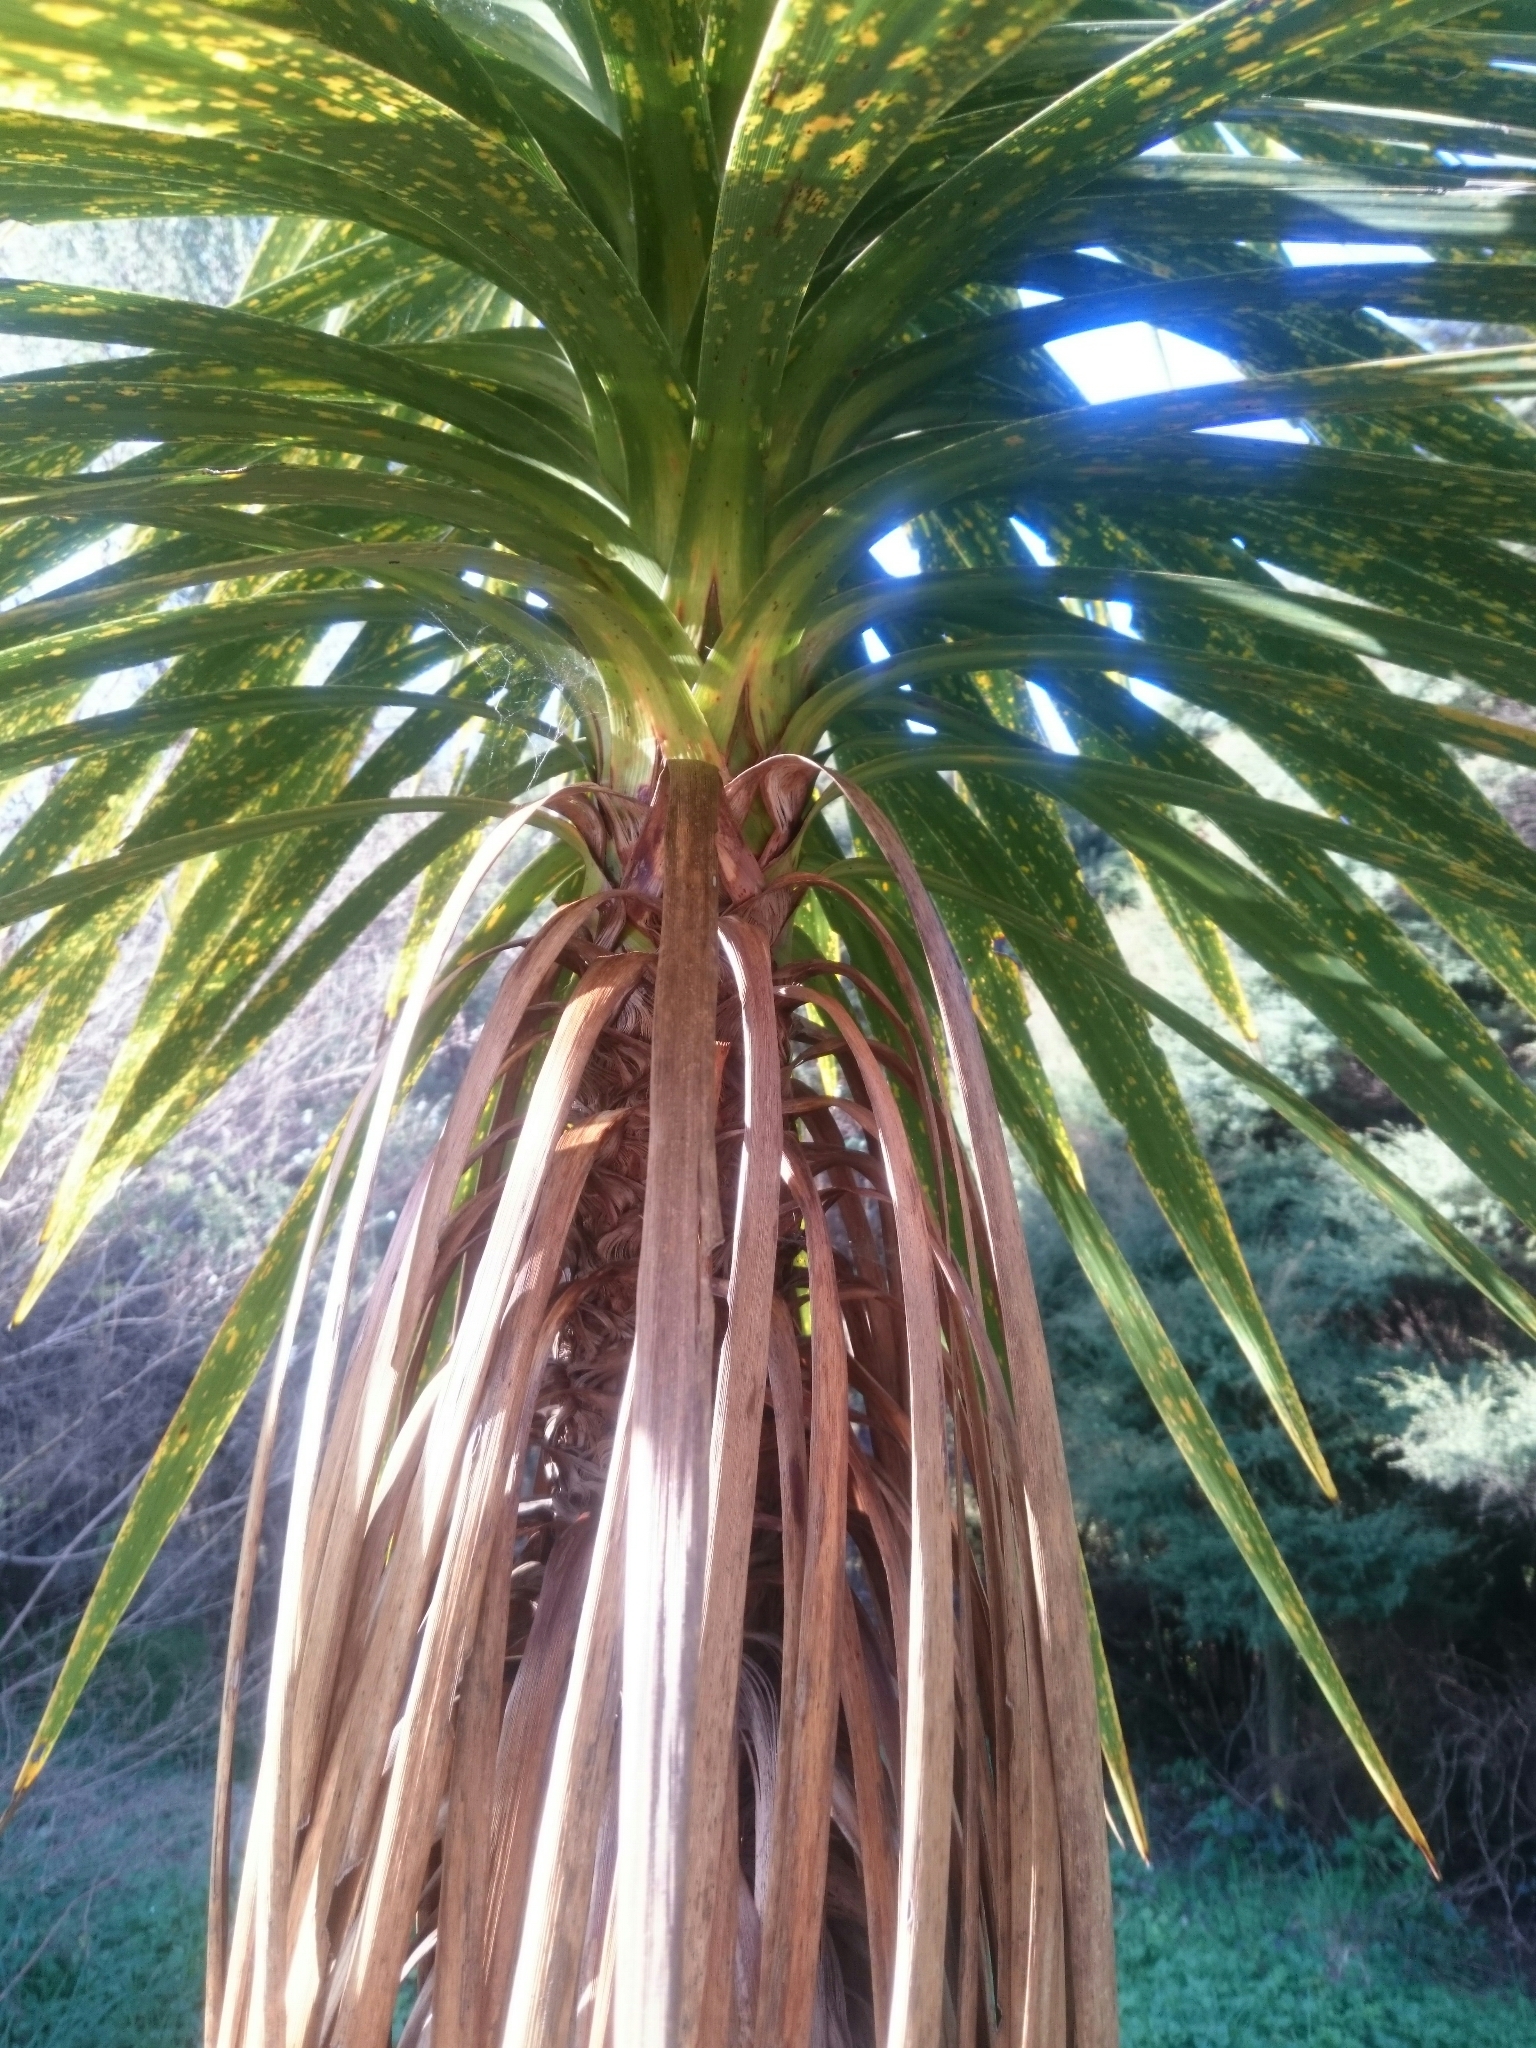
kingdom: Plantae
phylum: Tracheophyta
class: Liliopsida
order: Asparagales
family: Asparagaceae
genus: Cordyline
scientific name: Cordyline australis
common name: Cabbage-palm
